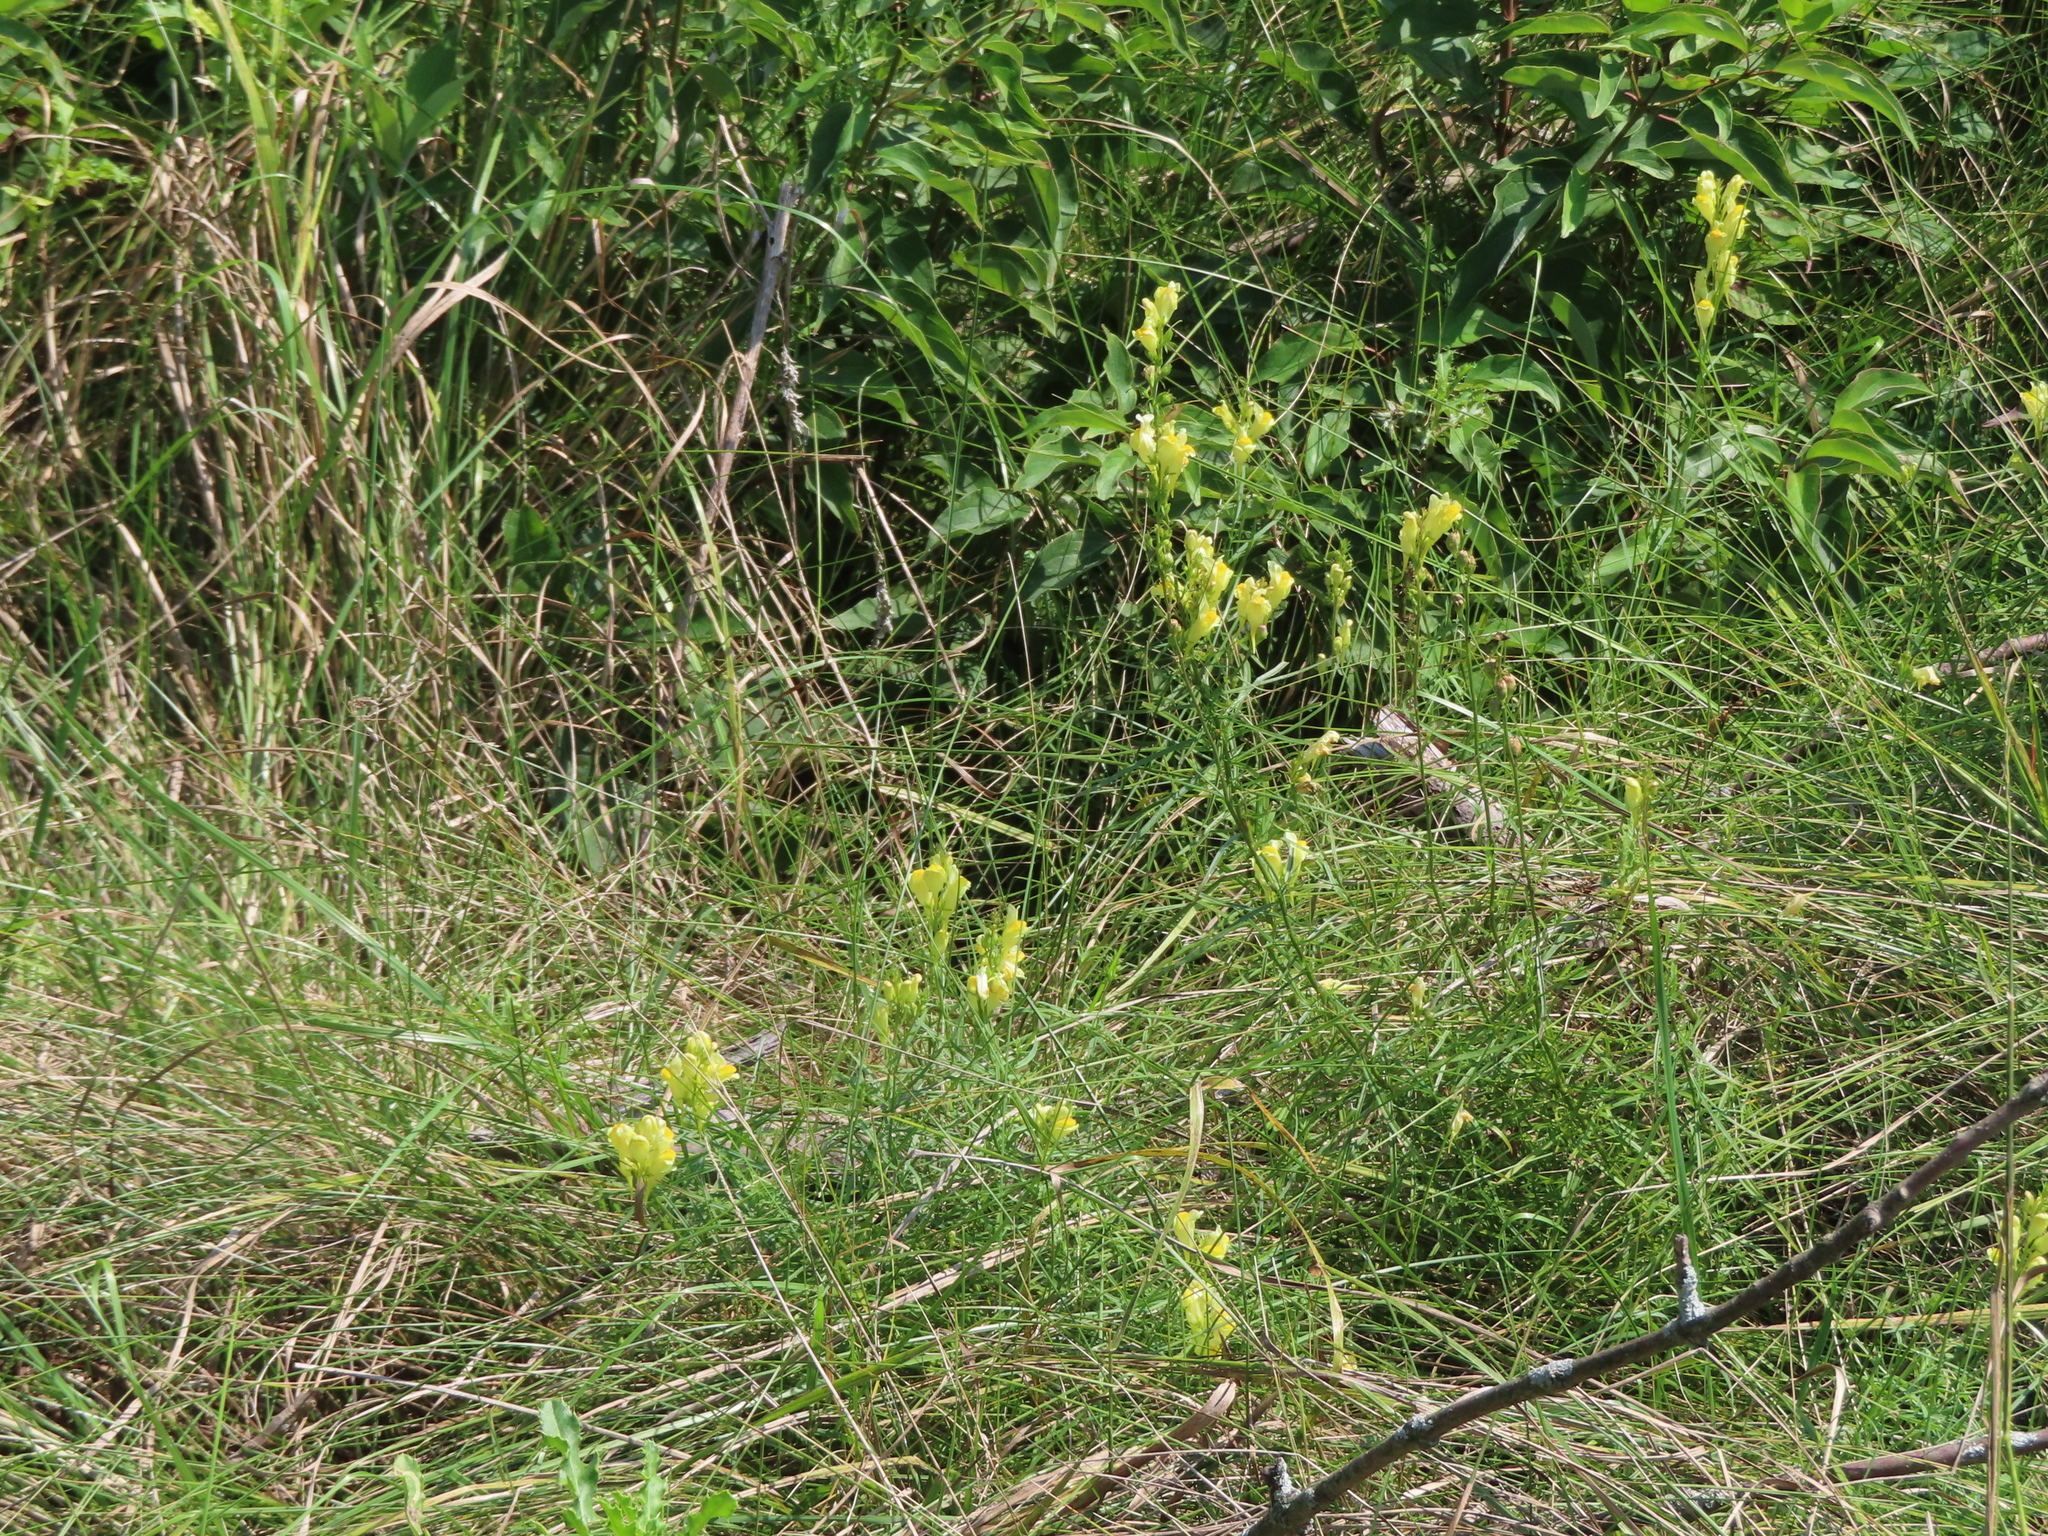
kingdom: Plantae
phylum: Tracheophyta
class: Magnoliopsida
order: Lamiales
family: Plantaginaceae
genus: Linaria
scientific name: Linaria vulgaris
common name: Butter and eggs
